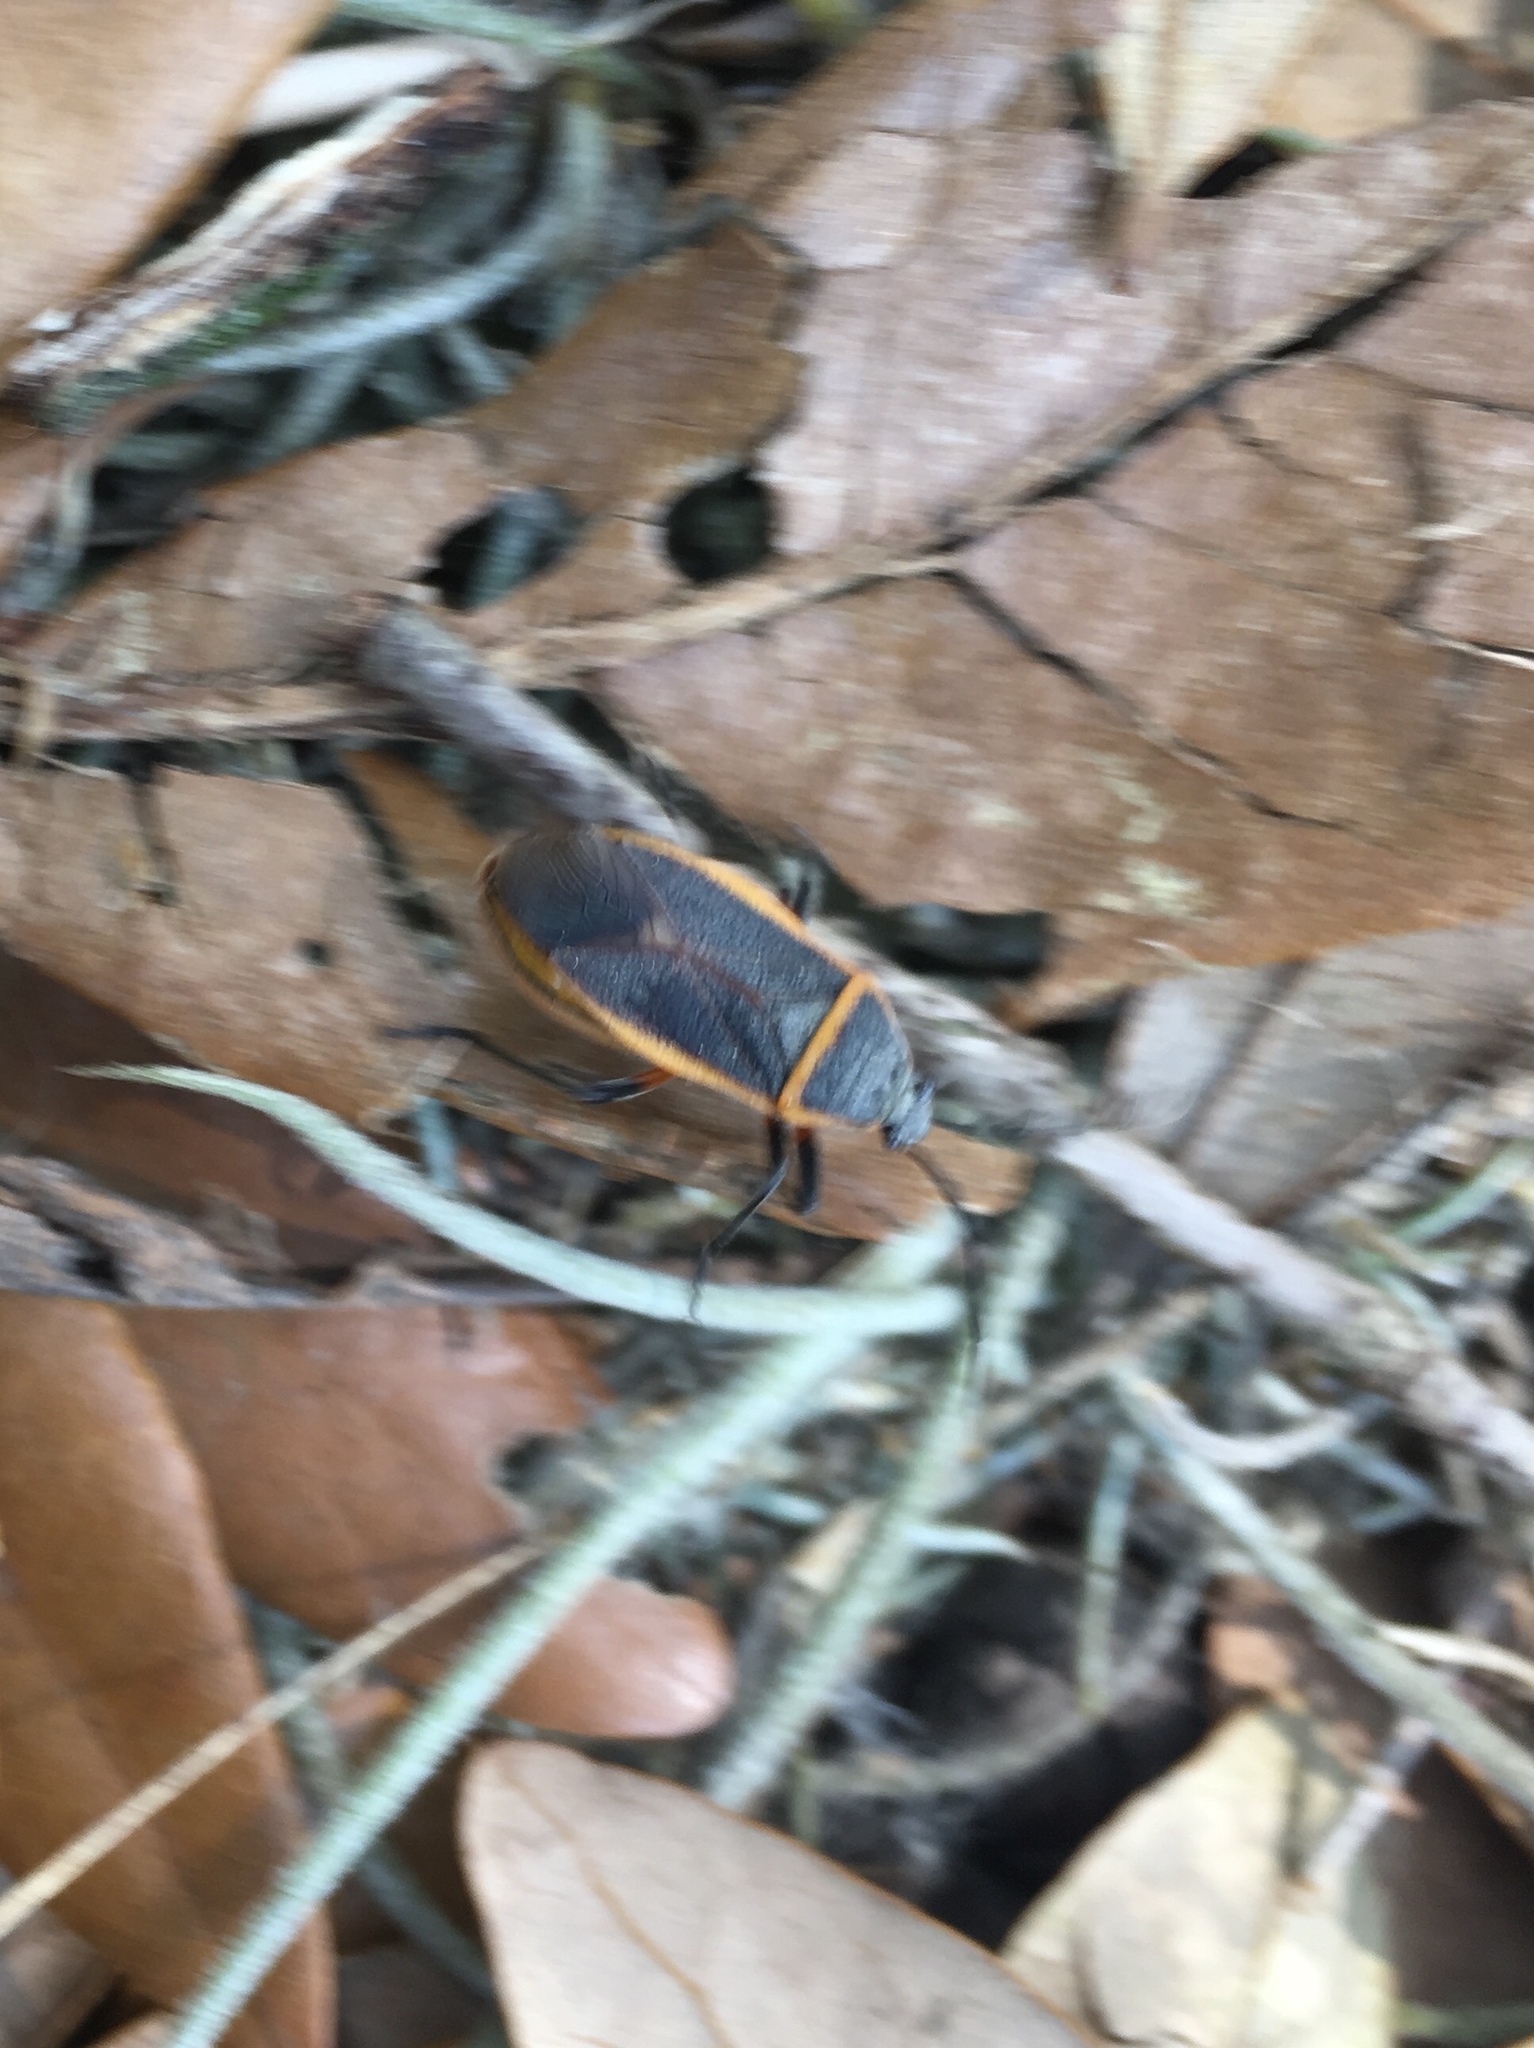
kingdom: Animalia
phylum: Arthropoda
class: Insecta
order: Hemiptera
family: Largidae
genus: Largus
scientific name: Largus succinctus
